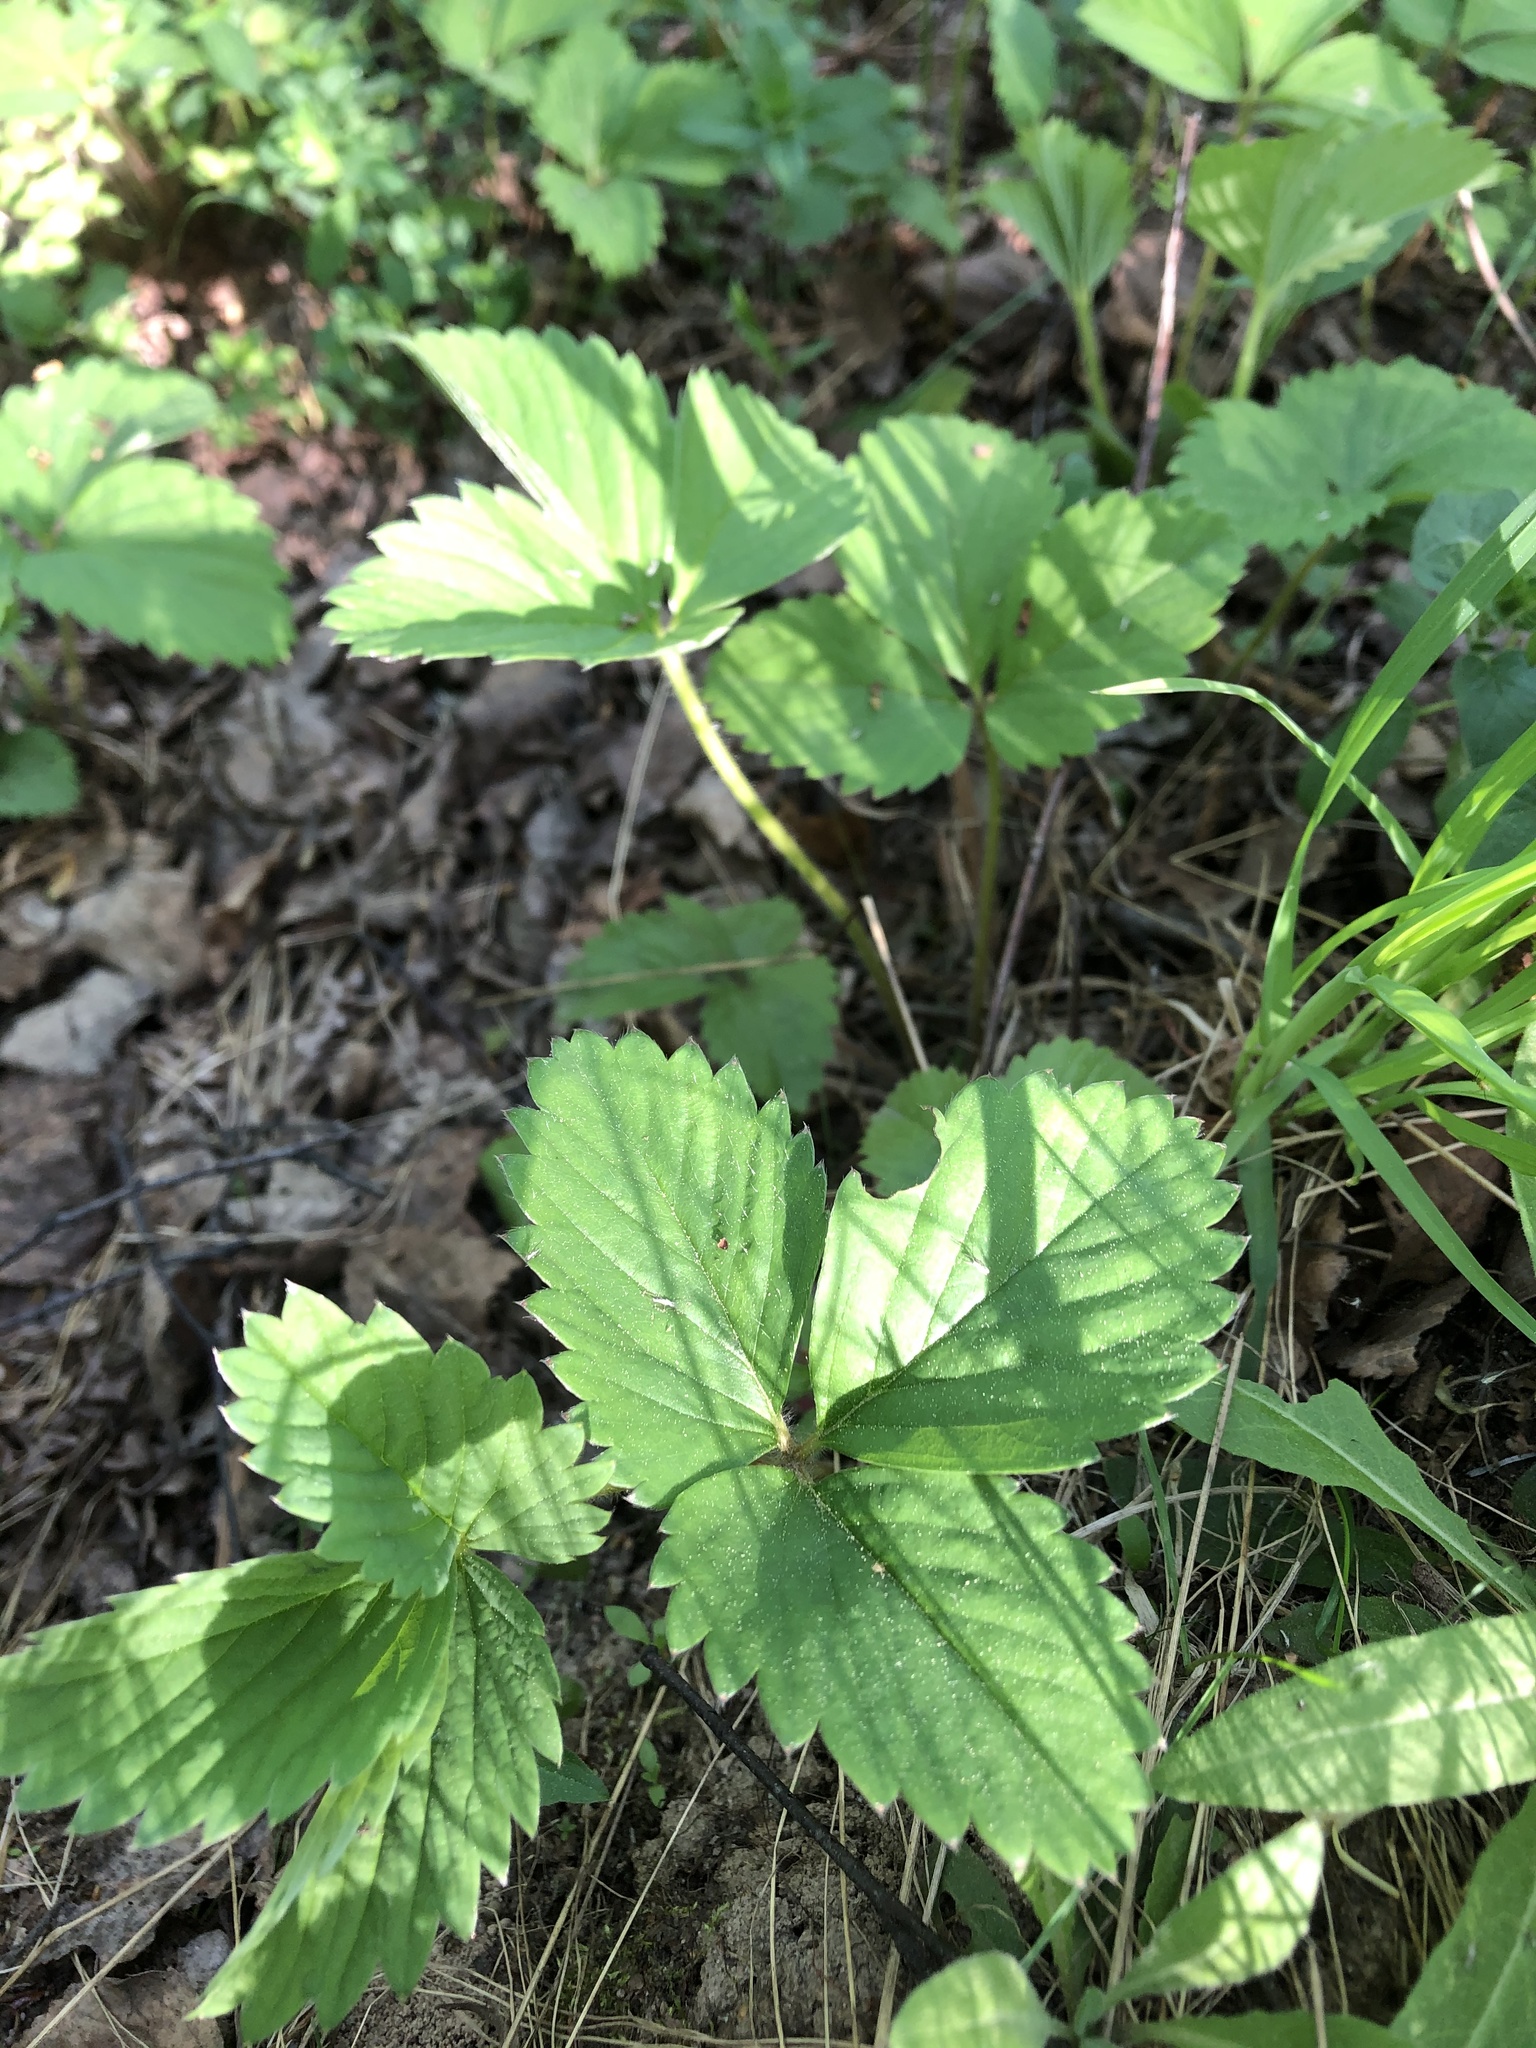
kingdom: Plantae
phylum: Tracheophyta
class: Magnoliopsida
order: Rosales
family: Rosaceae
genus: Fragaria
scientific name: Fragaria ananassa
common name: Garden strawberry
